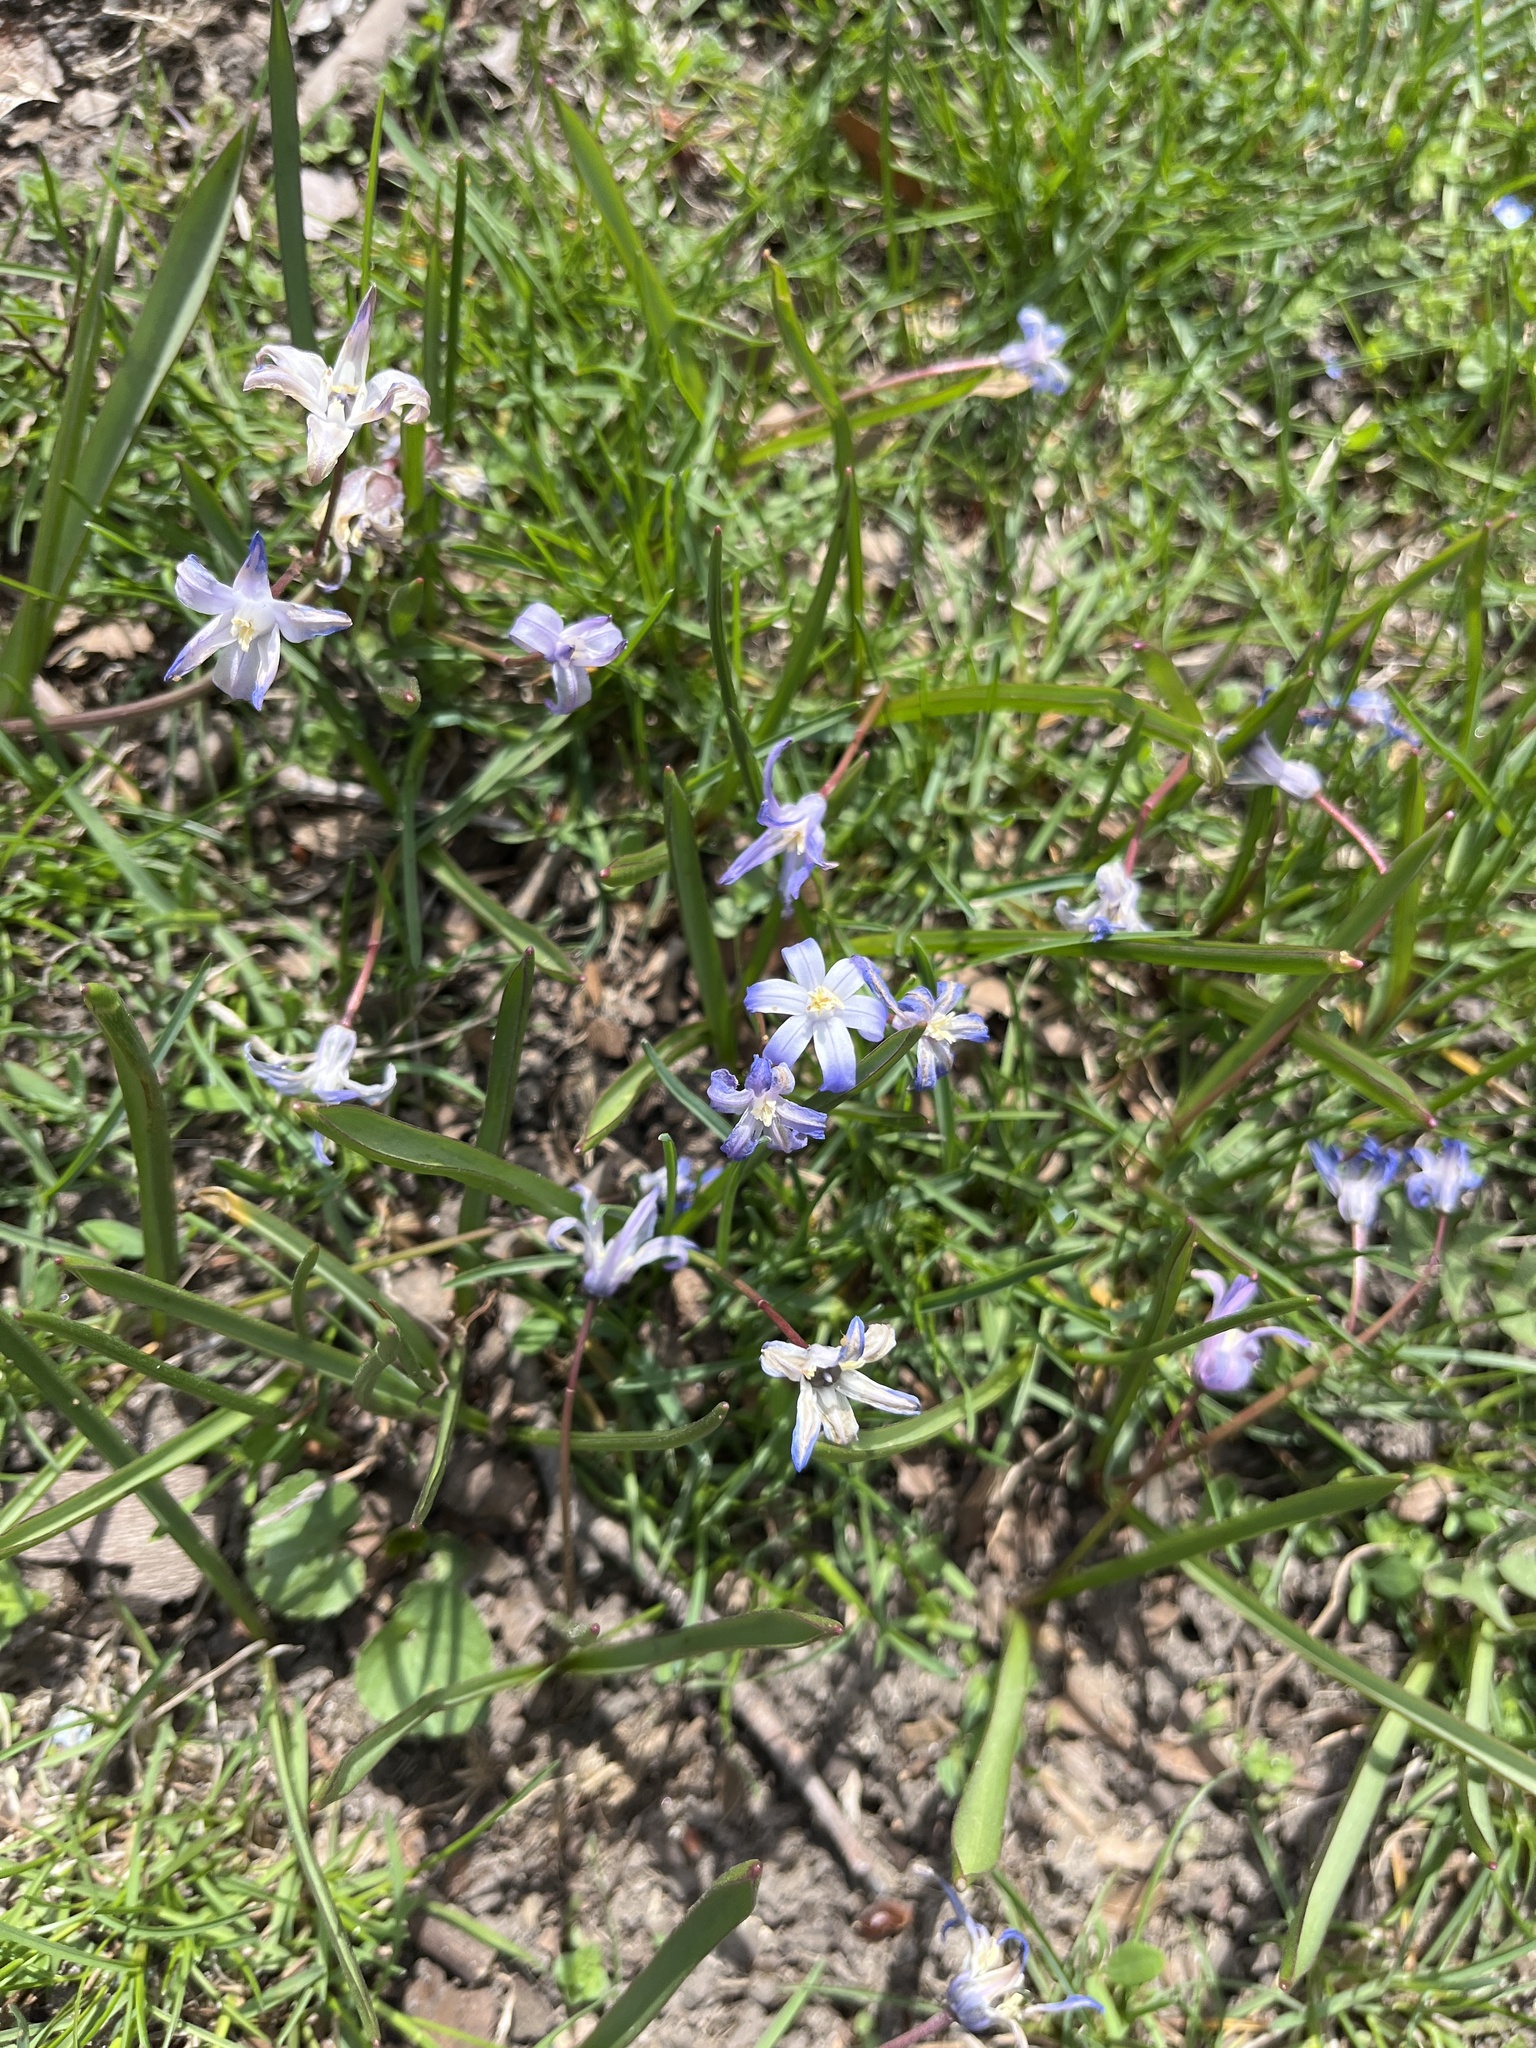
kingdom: Plantae
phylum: Tracheophyta
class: Liliopsida
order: Asparagales
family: Asparagaceae
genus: Scilla
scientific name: Scilla forbesii
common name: Glory-of-the-snow
